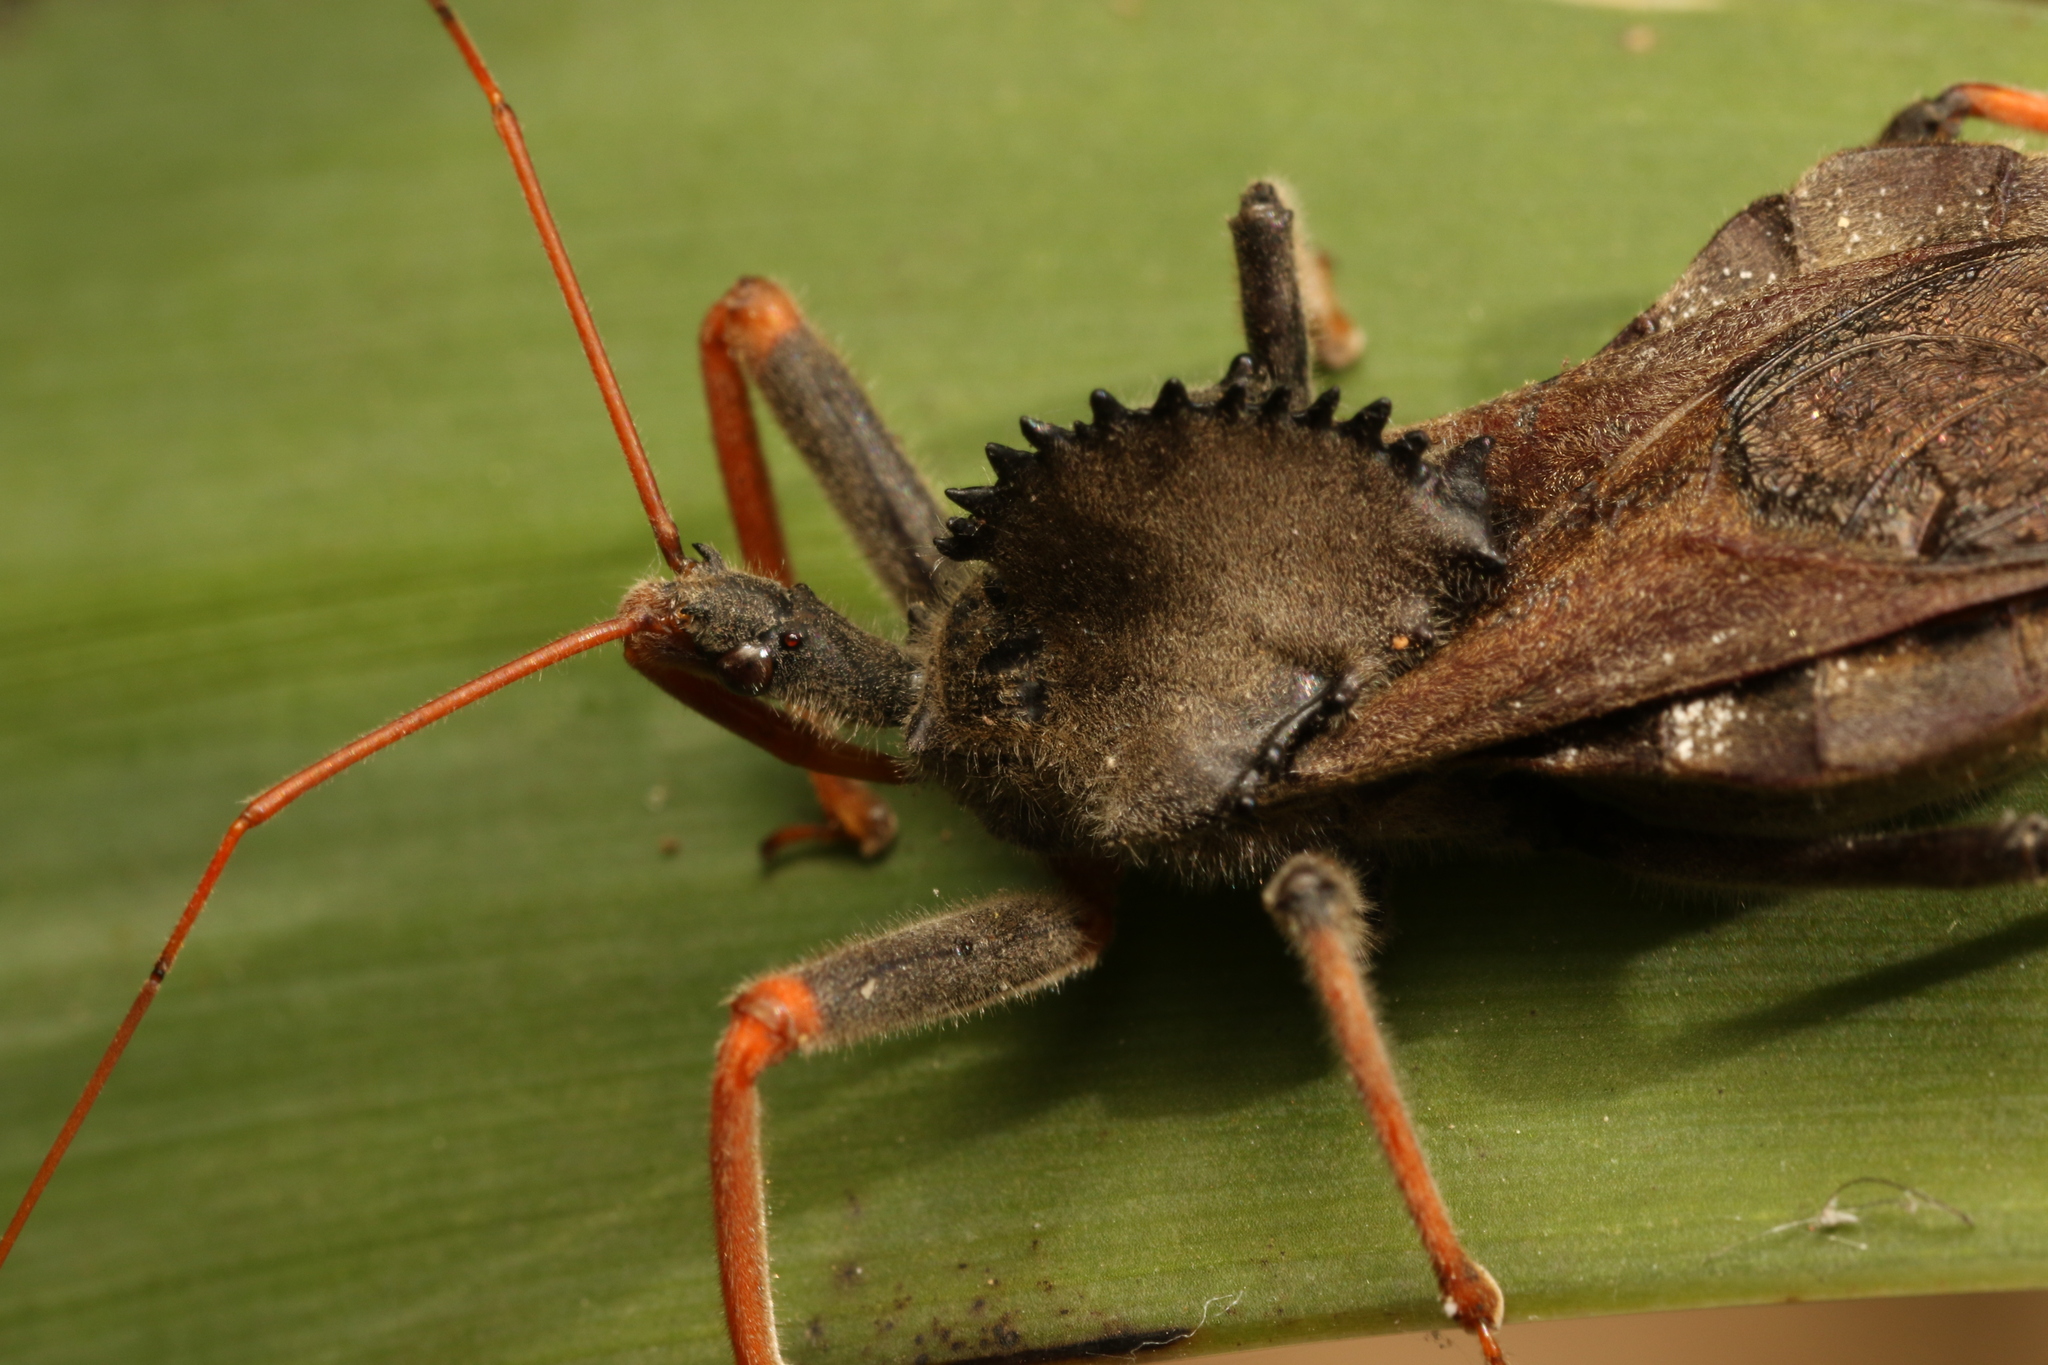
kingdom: Animalia
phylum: Arthropoda
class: Insecta
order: Hemiptera
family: Reduviidae
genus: Arilus
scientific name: Arilus carinatus
